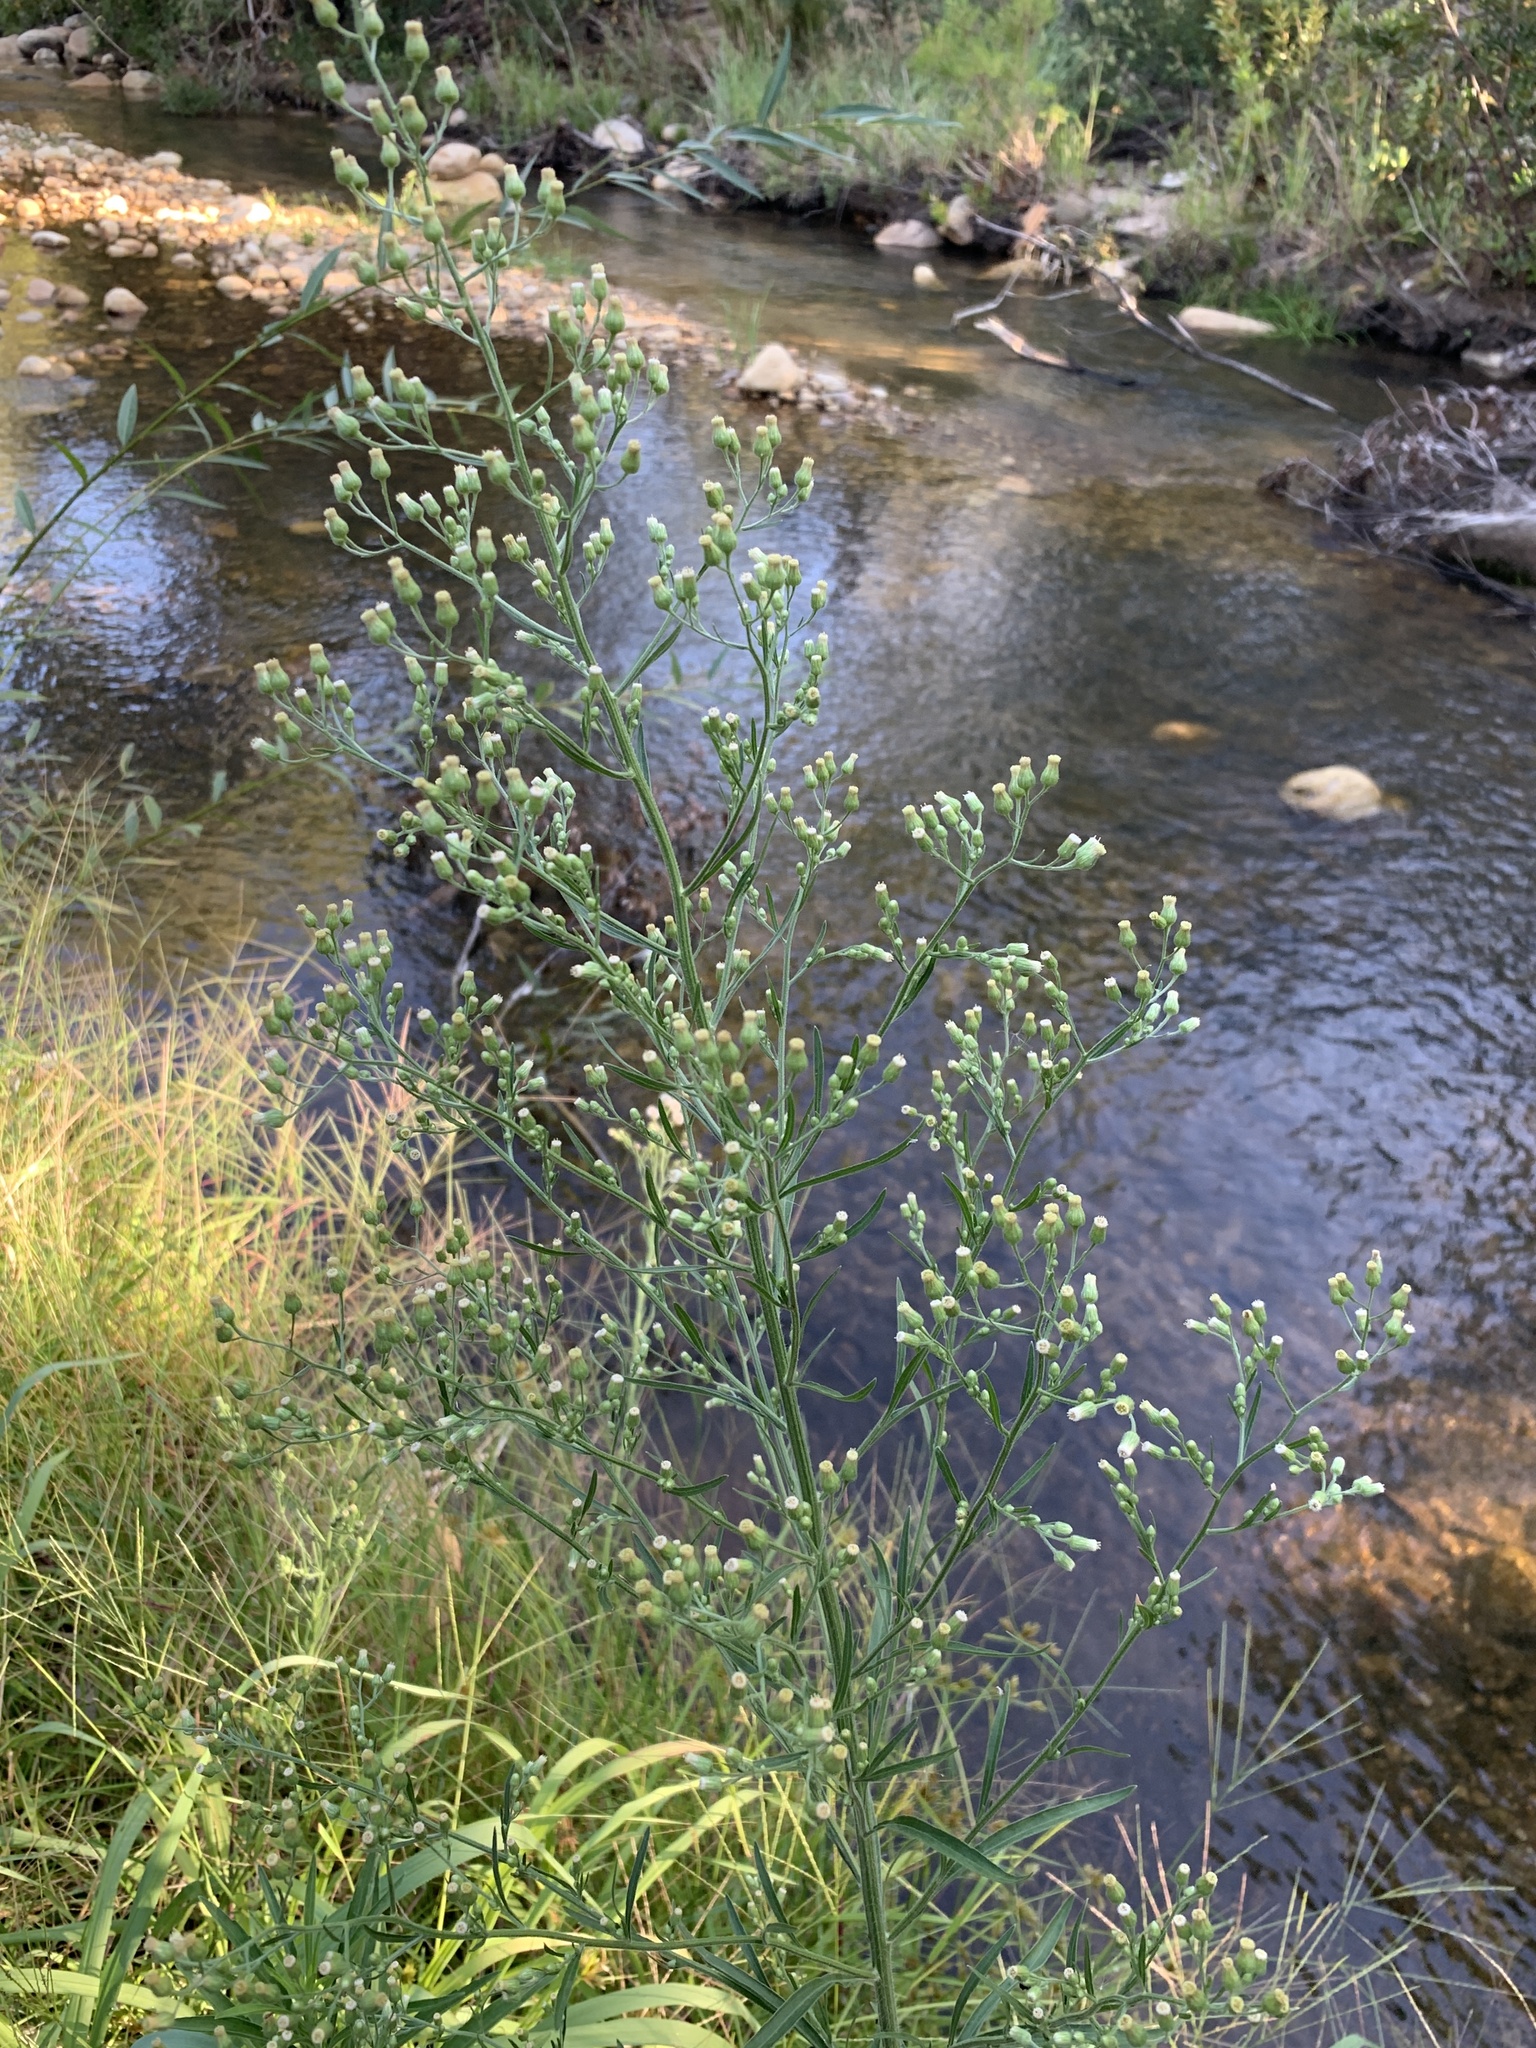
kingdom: Plantae
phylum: Tracheophyta
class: Magnoliopsida
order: Asterales
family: Asteraceae
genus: Erigeron
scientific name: Erigeron sumatrensis
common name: Daisy
